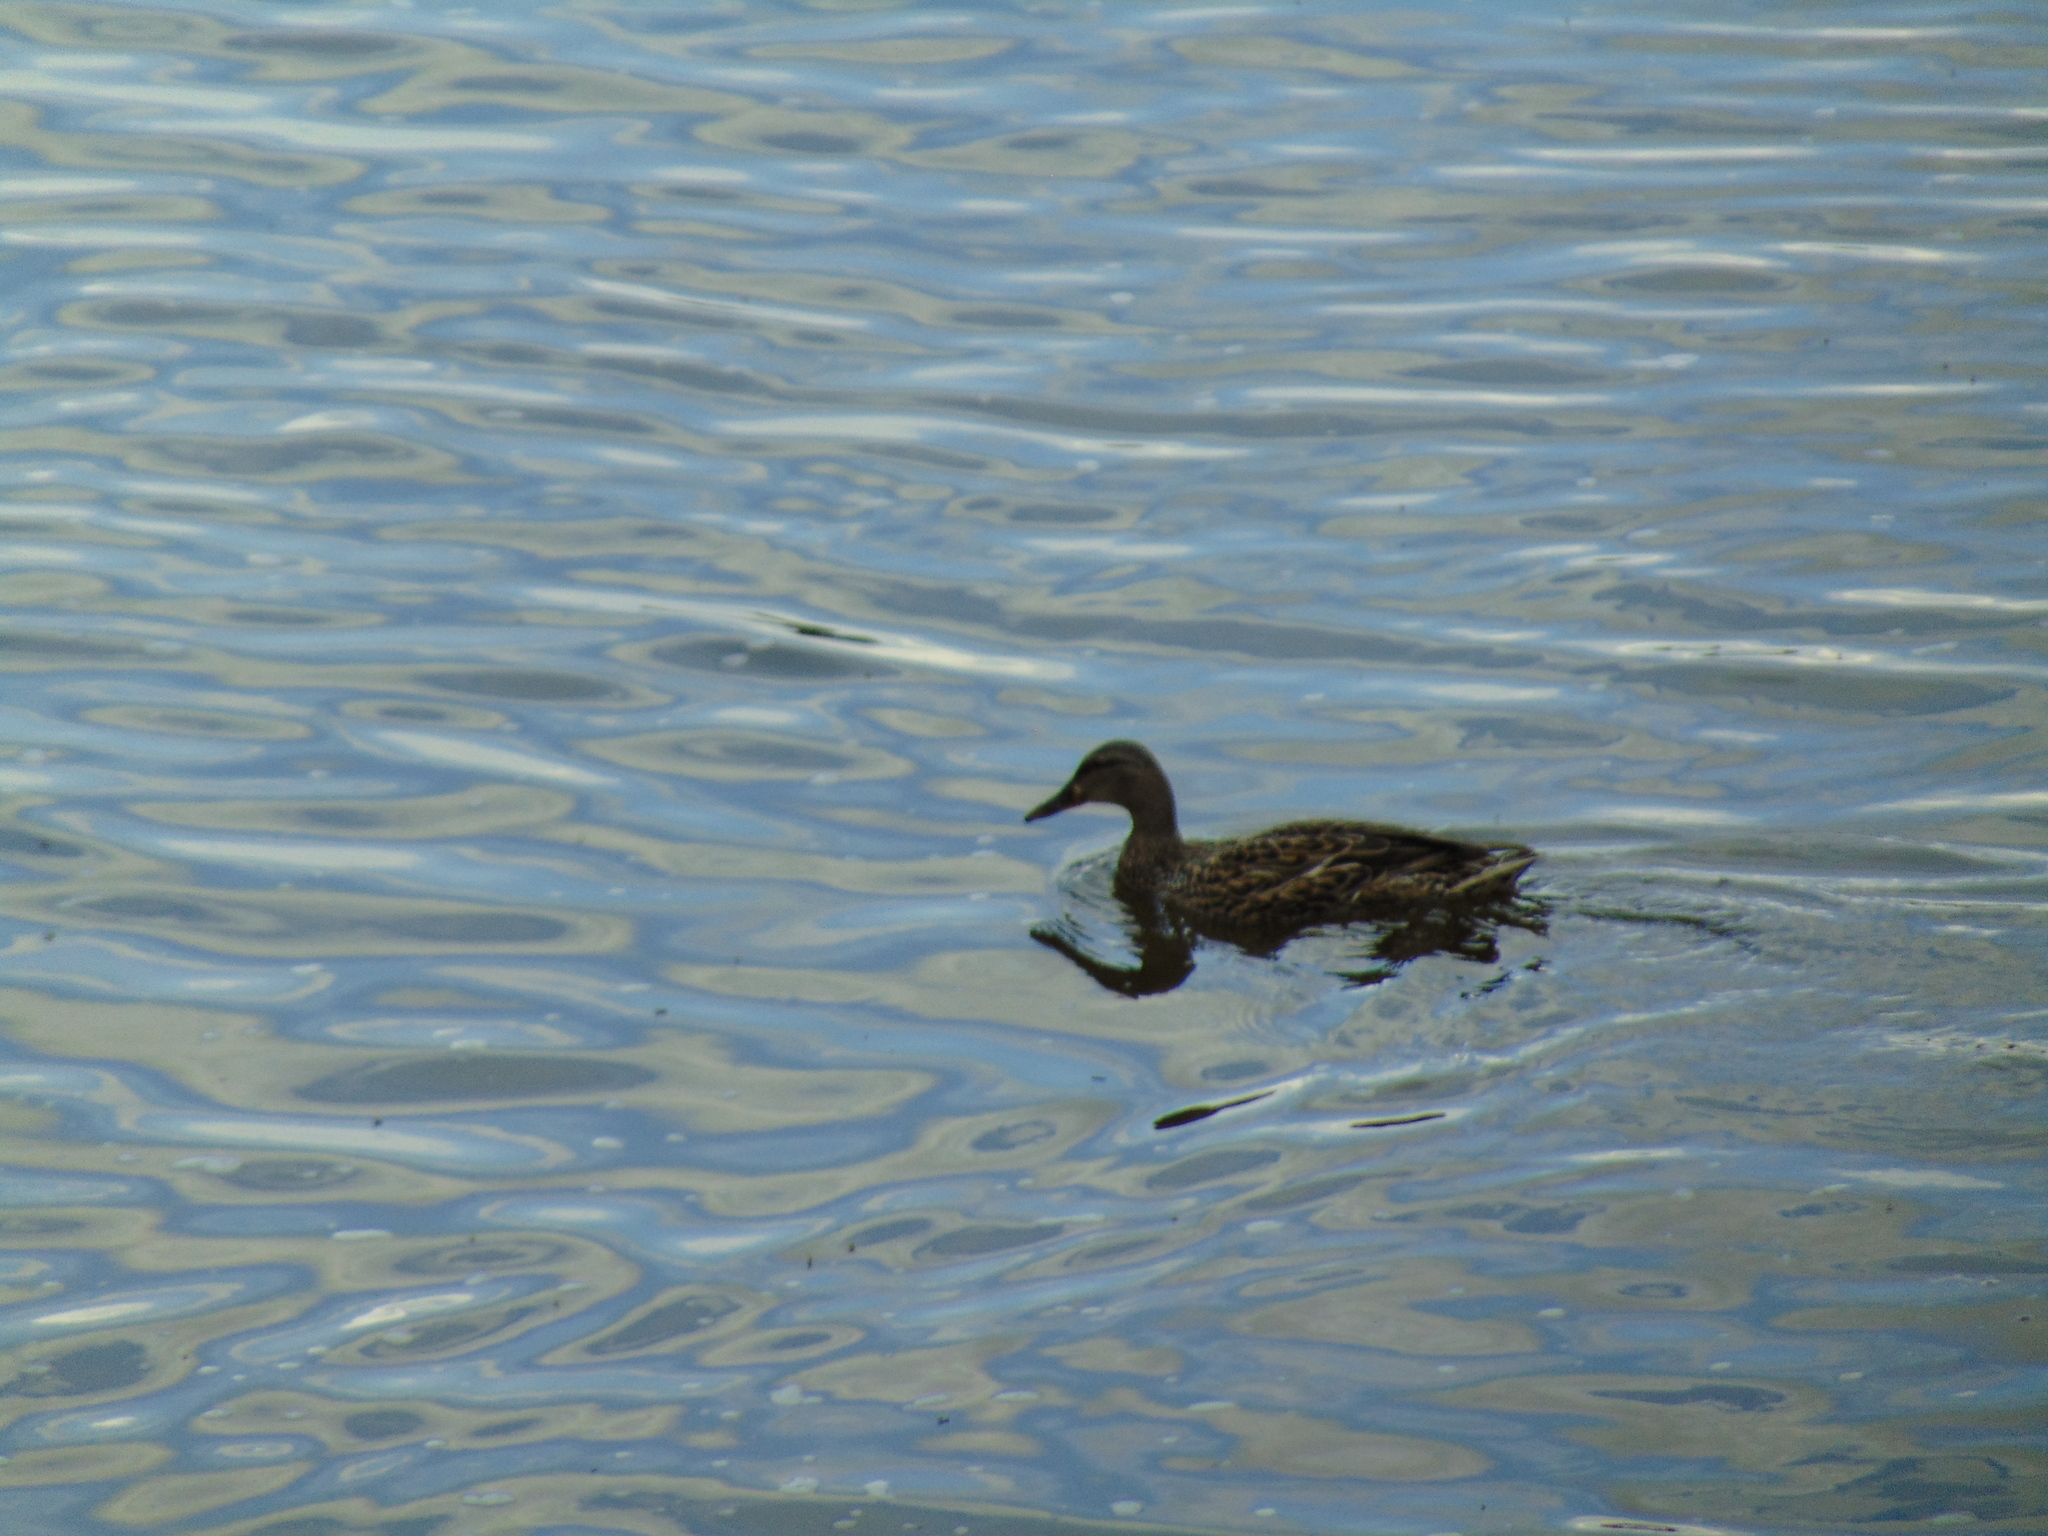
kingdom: Animalia
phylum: Chordata
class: Aves
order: Anseriformes
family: Anatidae
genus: Anas
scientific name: Anas platyrhynchos
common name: Mallard
